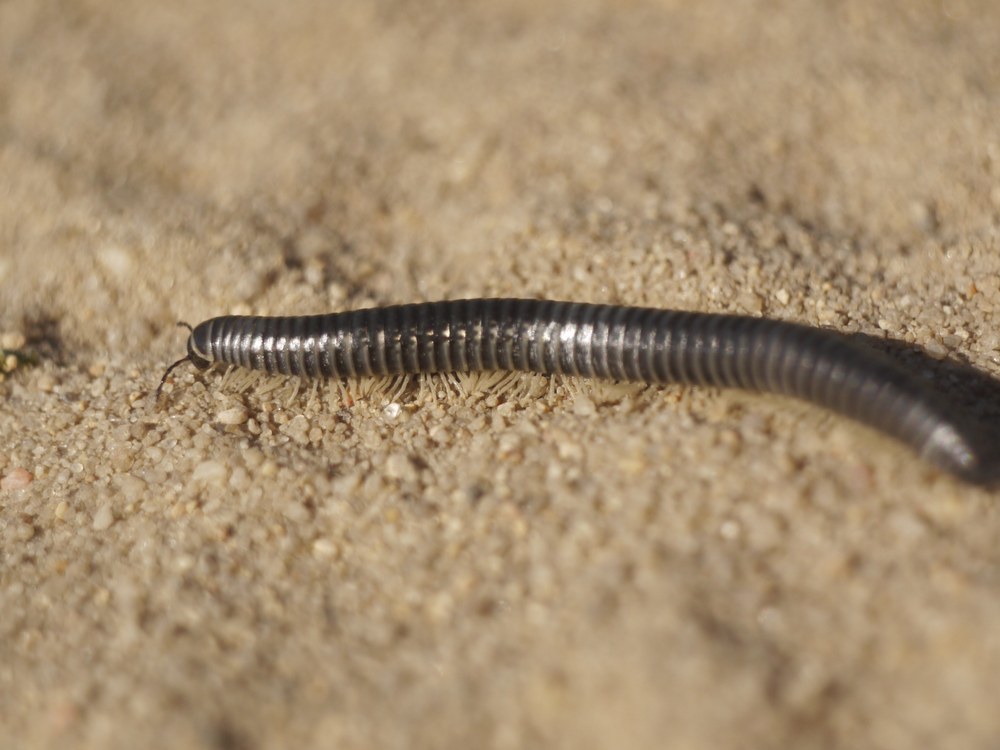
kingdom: Animalia
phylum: Arthropoda
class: Diplopoda
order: Julida
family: Julidae
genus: Rossiulus
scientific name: Rossiulus kessleri
